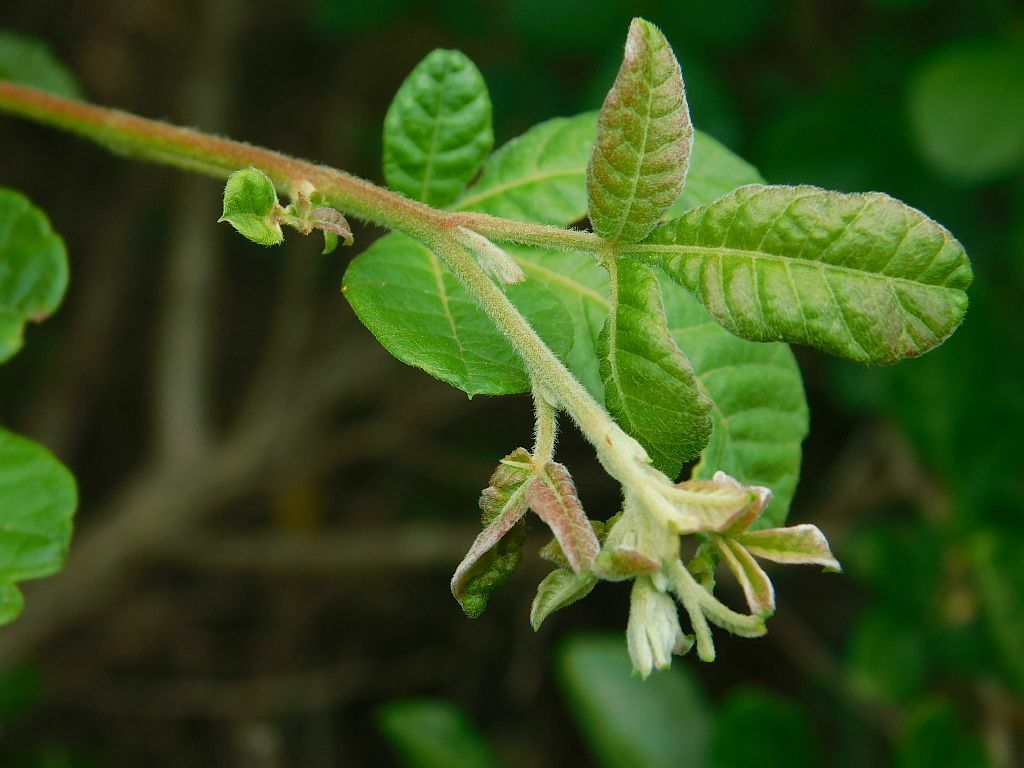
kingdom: Plantae
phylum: Tracheophyta
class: Magnoliopsida
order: Sapindales
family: Anacardiaceae
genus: Searsia
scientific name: Searsia rehmanniana
